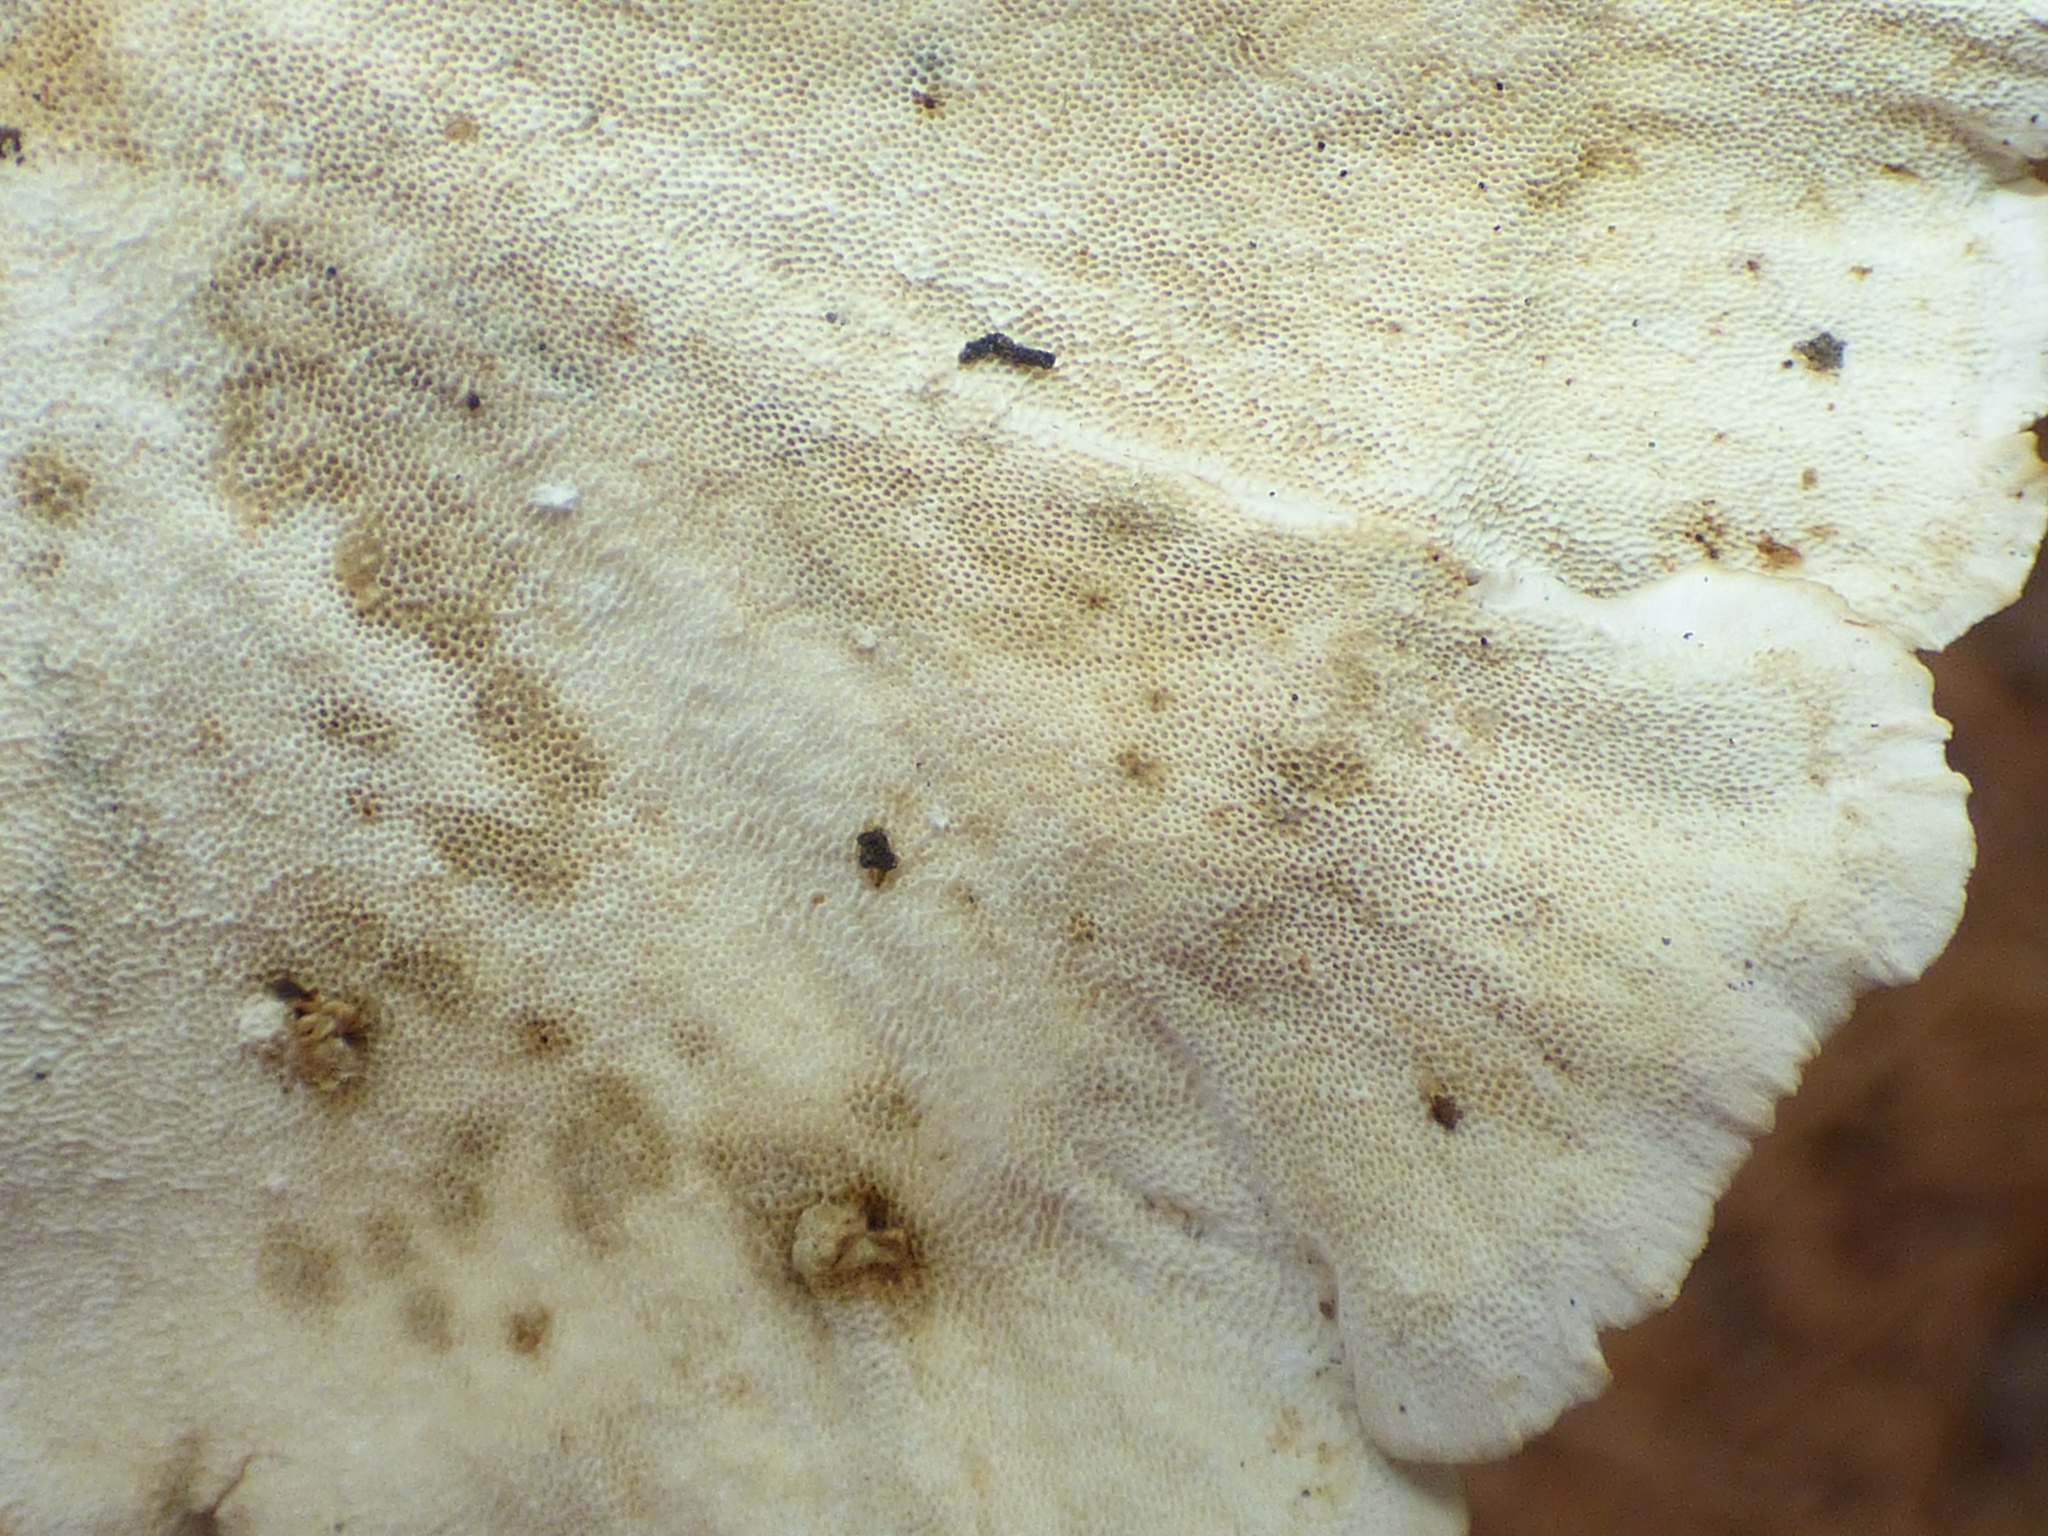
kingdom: Fungi
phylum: Basidiomycota
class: Agaricomycetes
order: Polyporales
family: Polyporaceae
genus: Trametes
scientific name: Trametes versicolor
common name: Turkeytail
